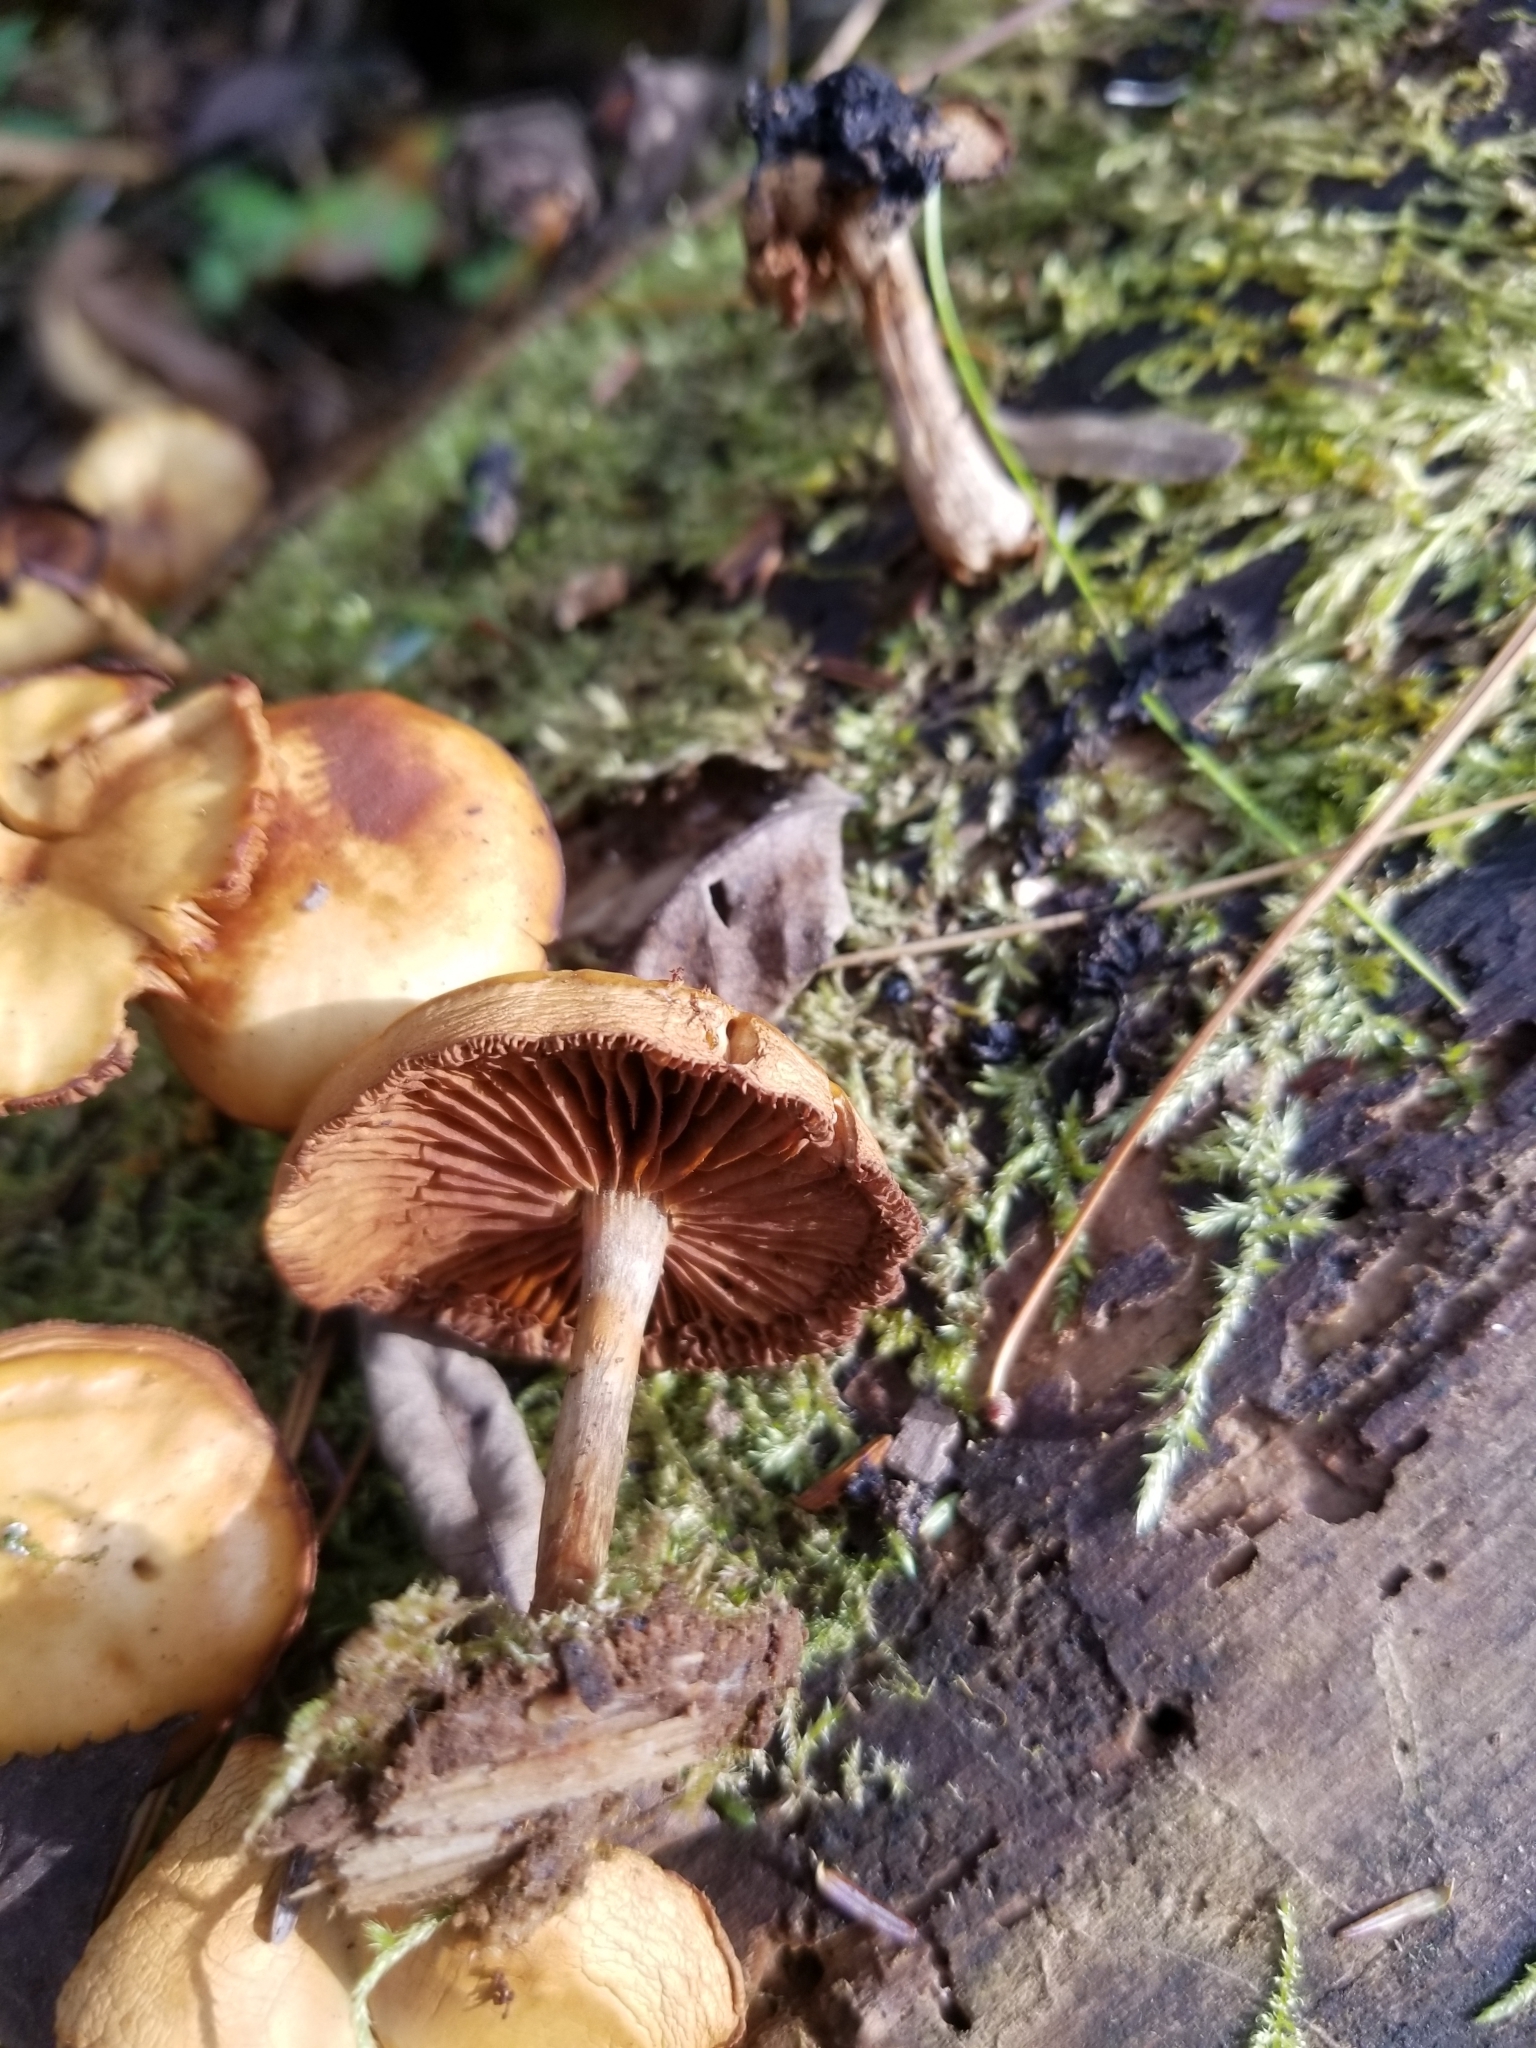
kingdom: Fungi
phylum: Basidiomycota
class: Agaricomycetes
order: Agaricales
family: Hymenogastraceae
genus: Galerina
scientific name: Galerina marginata
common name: Funeral bell
